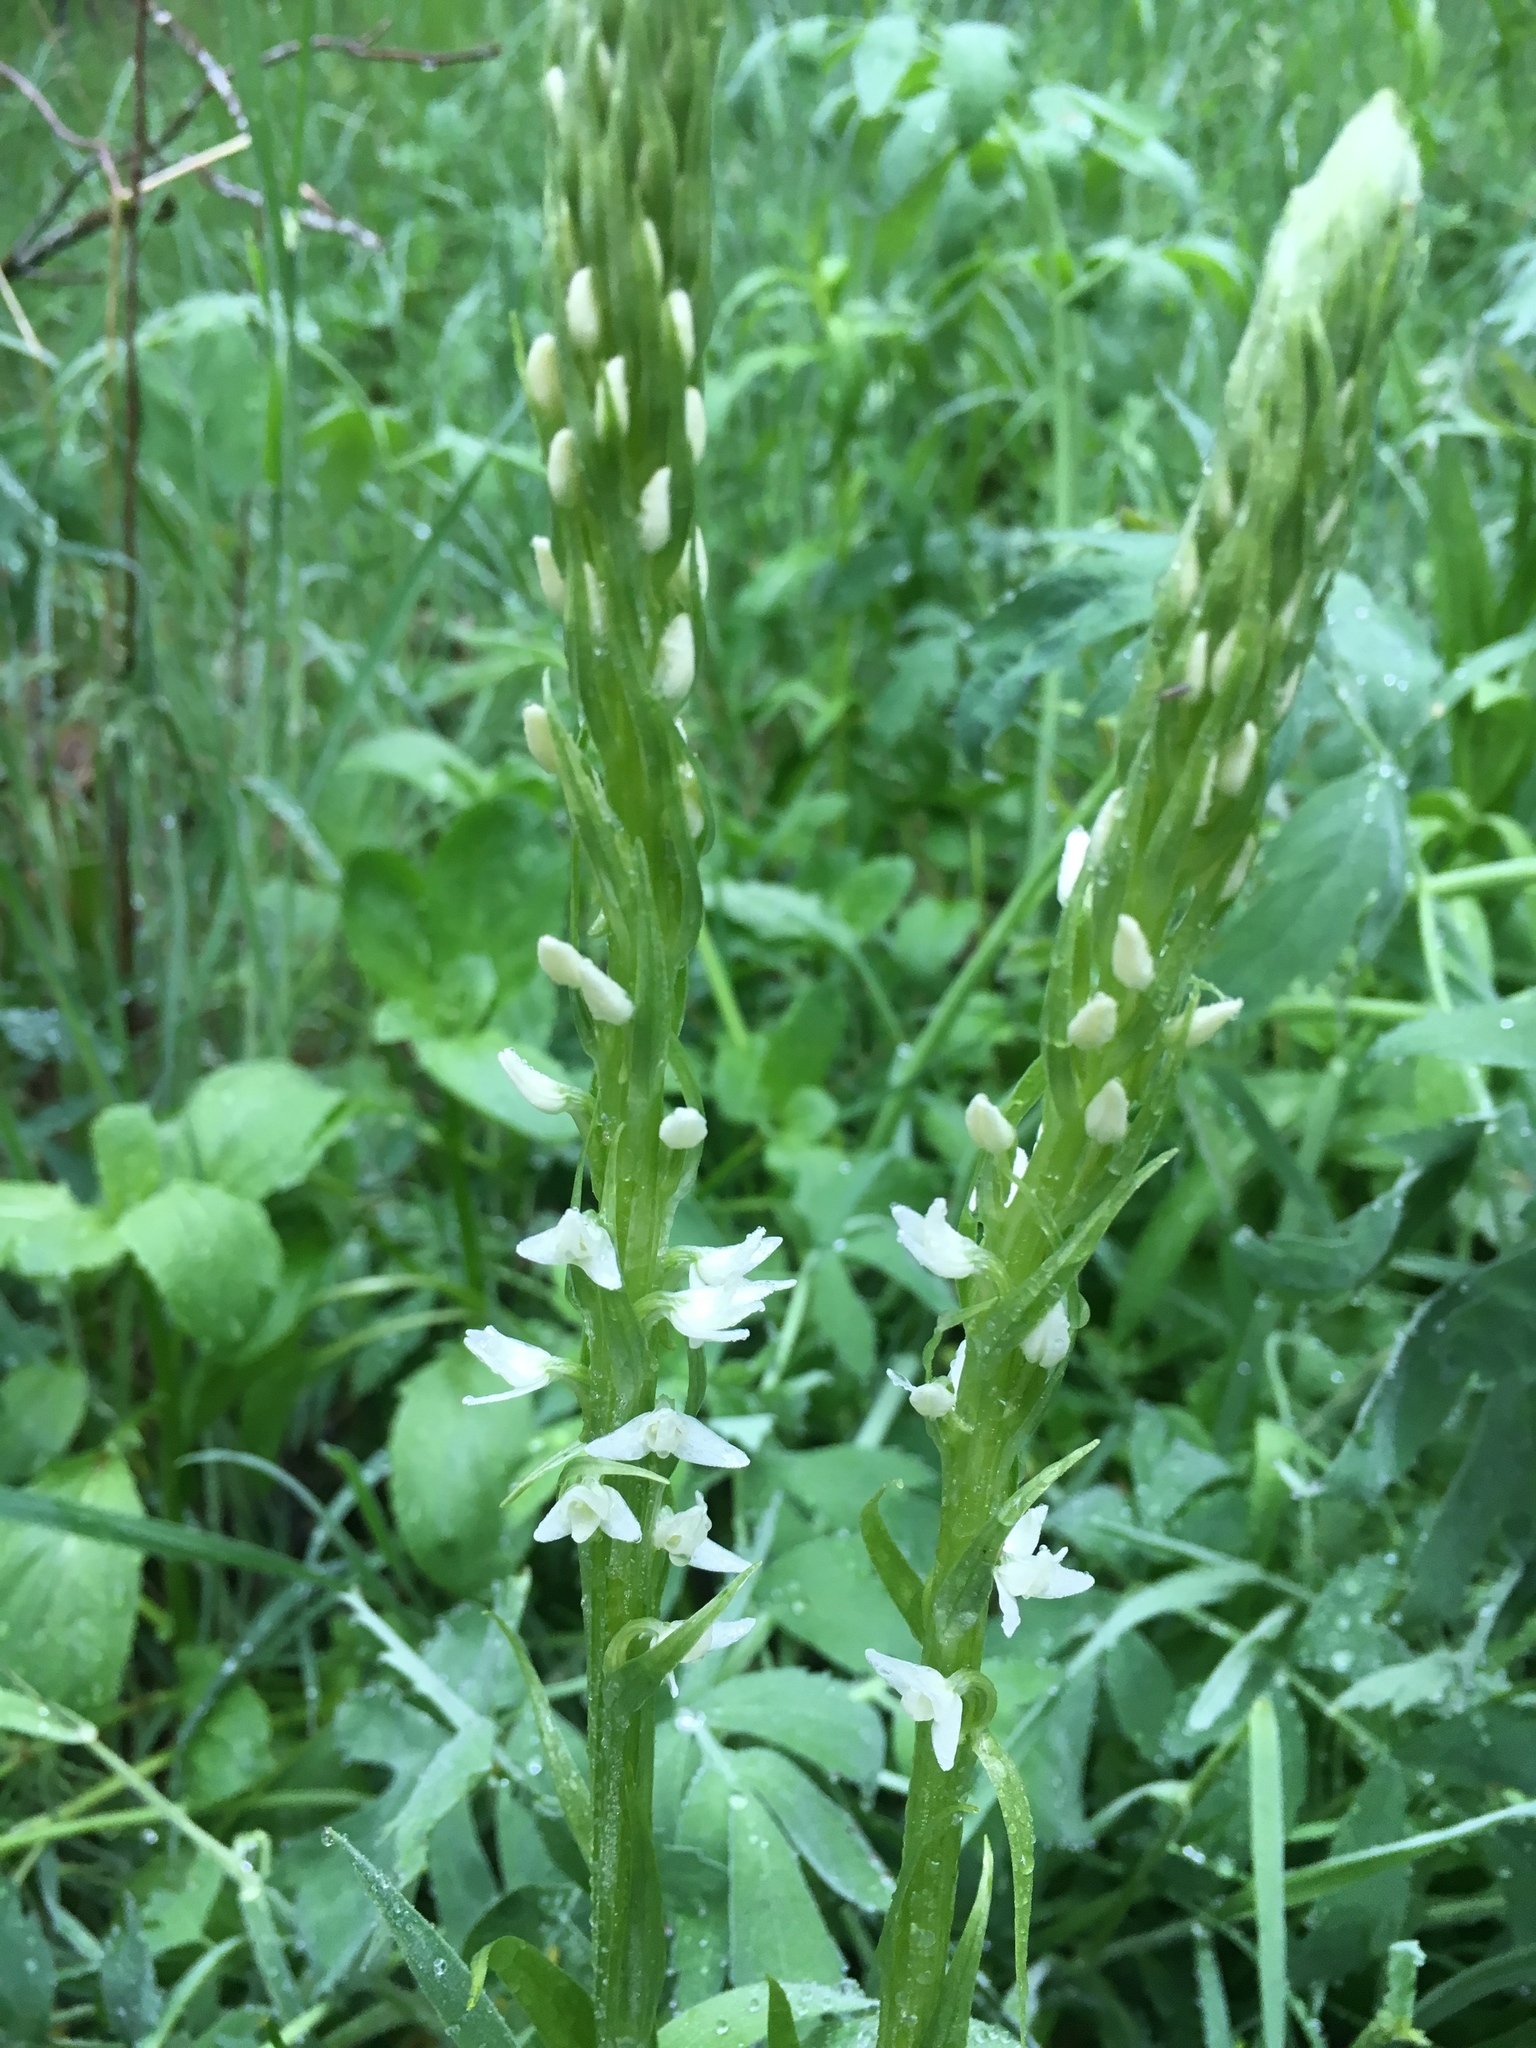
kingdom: Plantae
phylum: Tracheophyta
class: Liliopsida
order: Asparagales
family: Orchidaceae
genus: Platanthera
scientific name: Platanthera dilatata
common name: Bog candles
